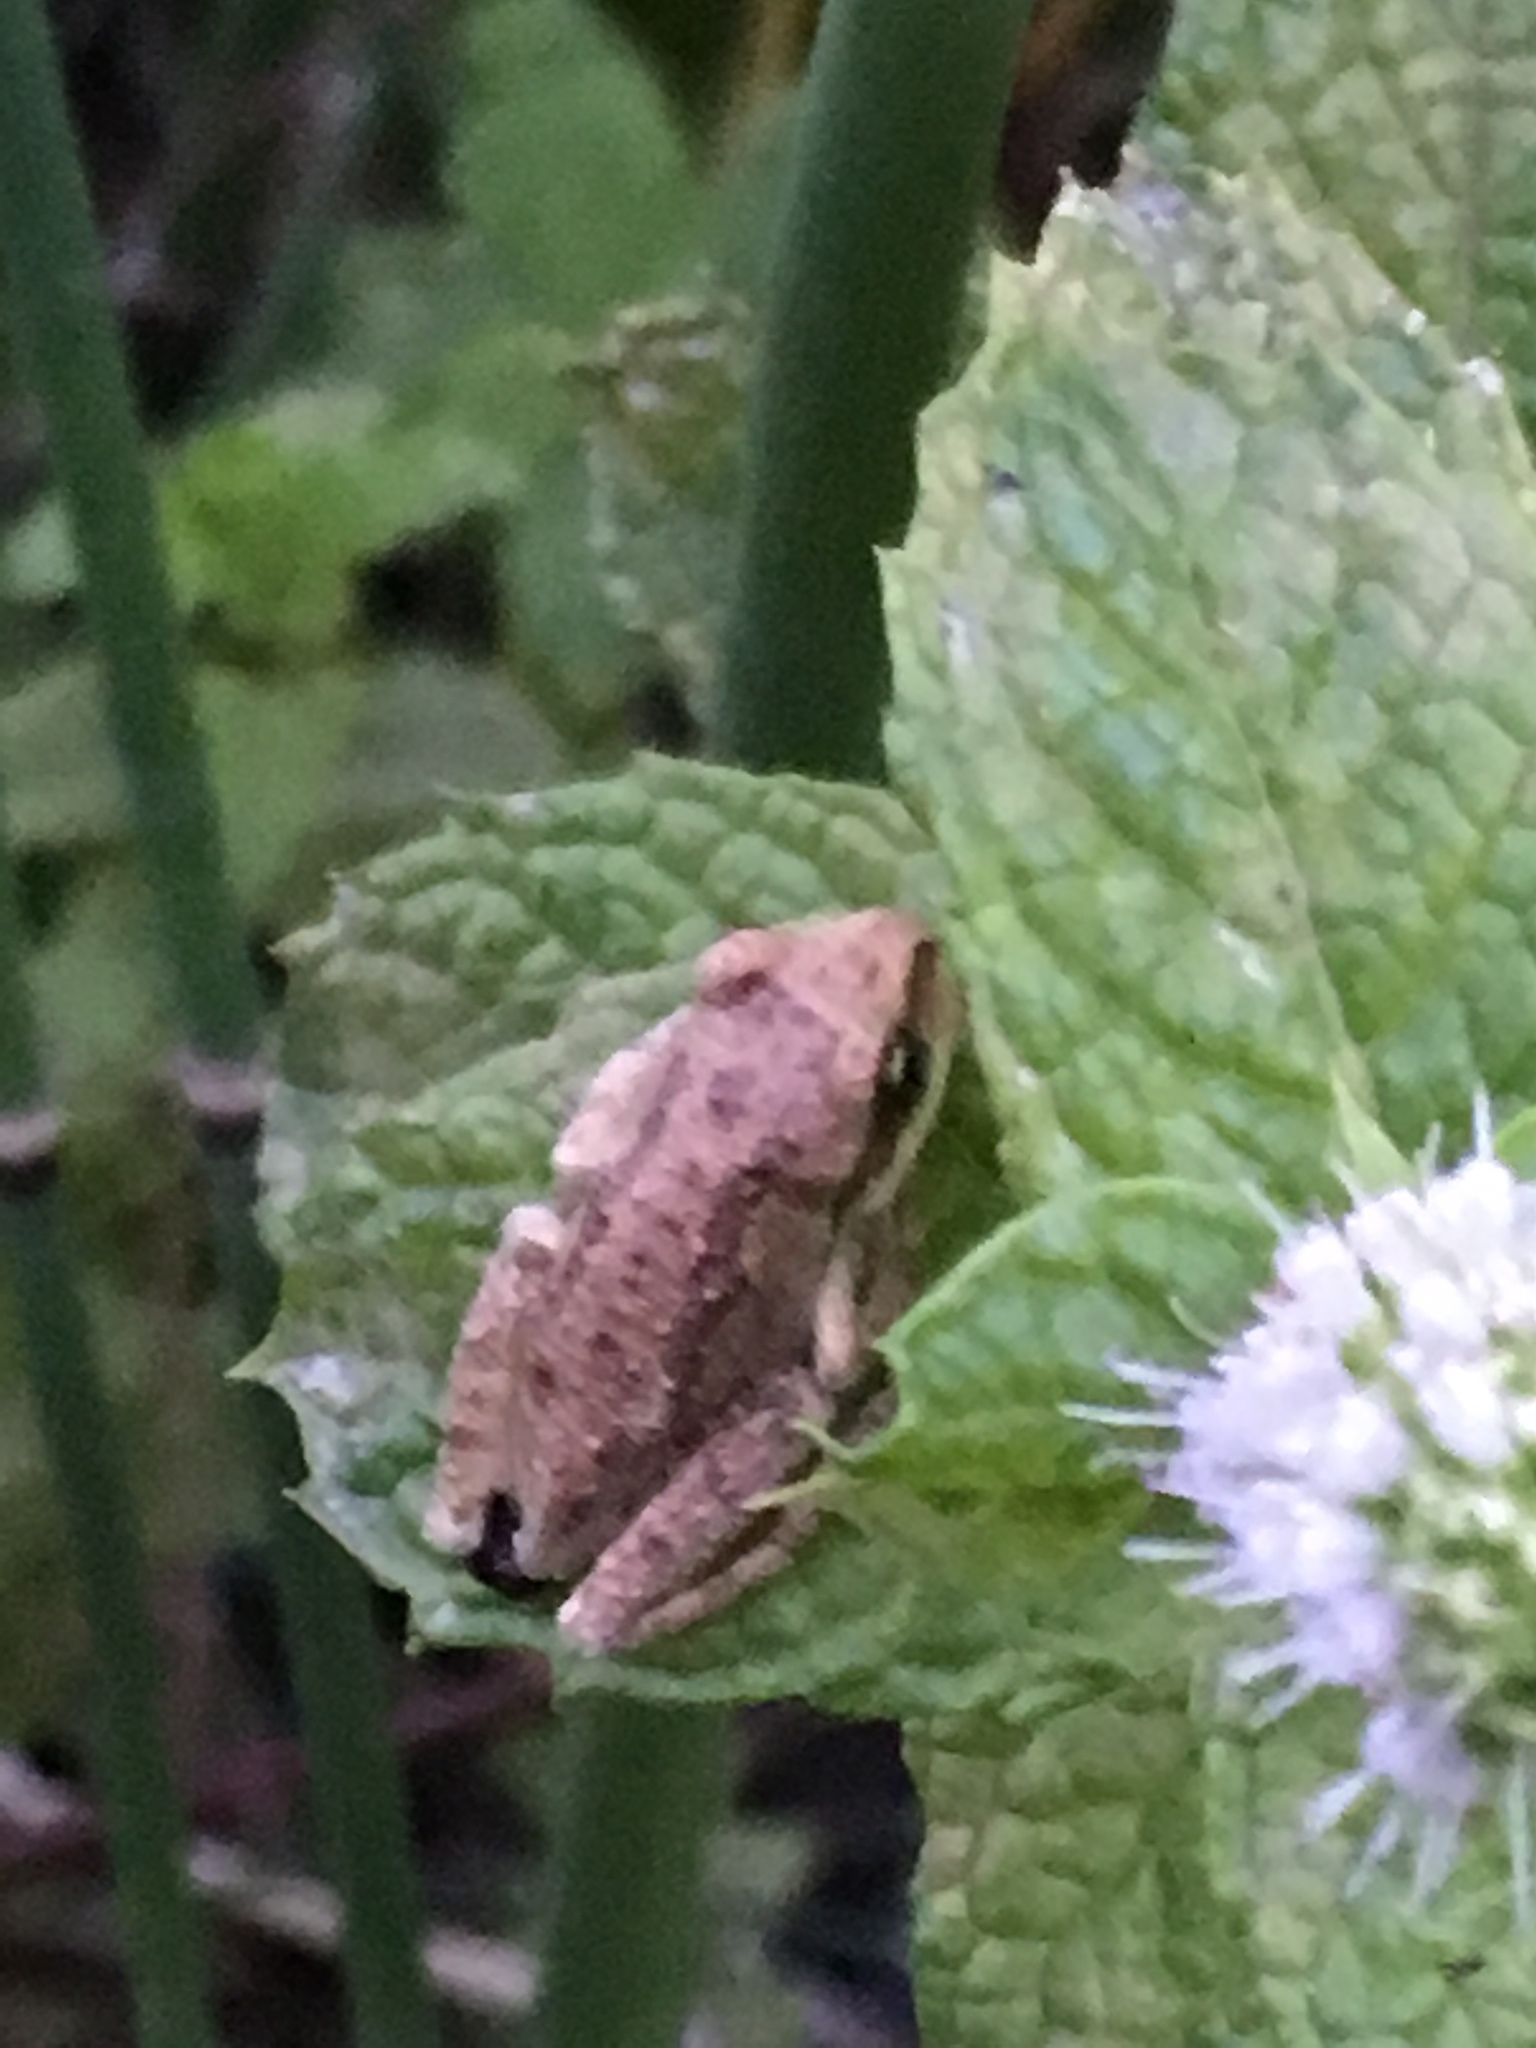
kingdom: Animalia
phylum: Chordata
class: Amphibia
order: Anura
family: Hylidae
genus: Pseudacris
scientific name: Pseudacris regilla
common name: Pacific chorus frog
